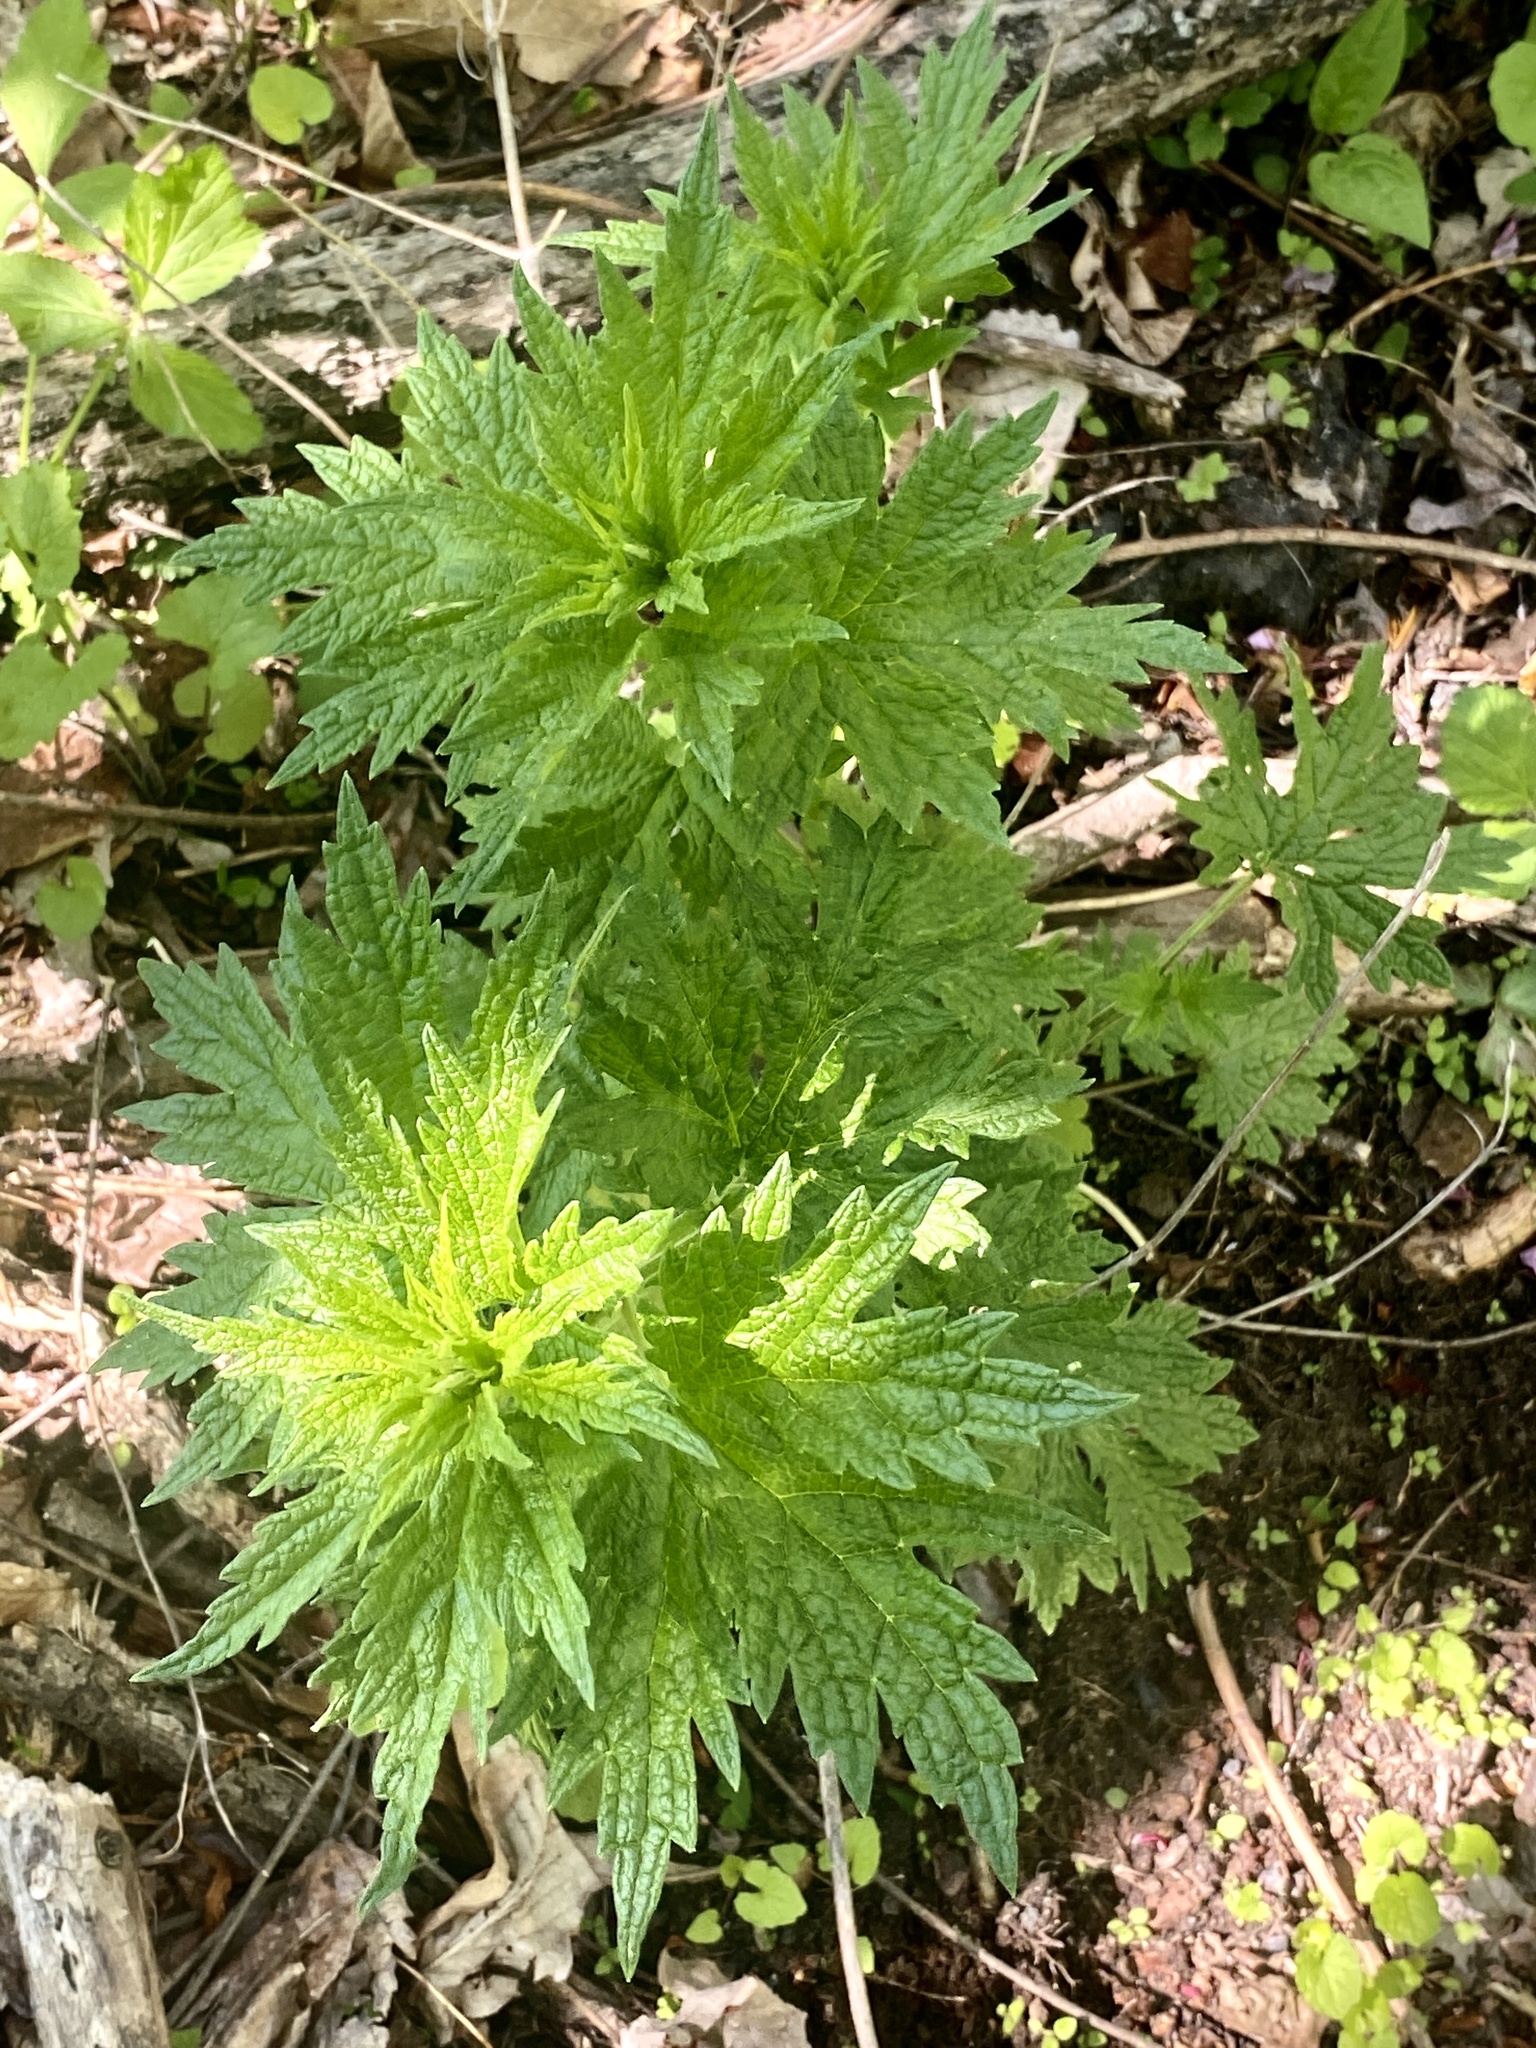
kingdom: Plantae
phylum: Tracheophyta
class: Magnoliopsida
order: Lamiales
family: Lamiaceae
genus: Leonurus
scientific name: Leonurus cardiaca
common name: Motherwort
